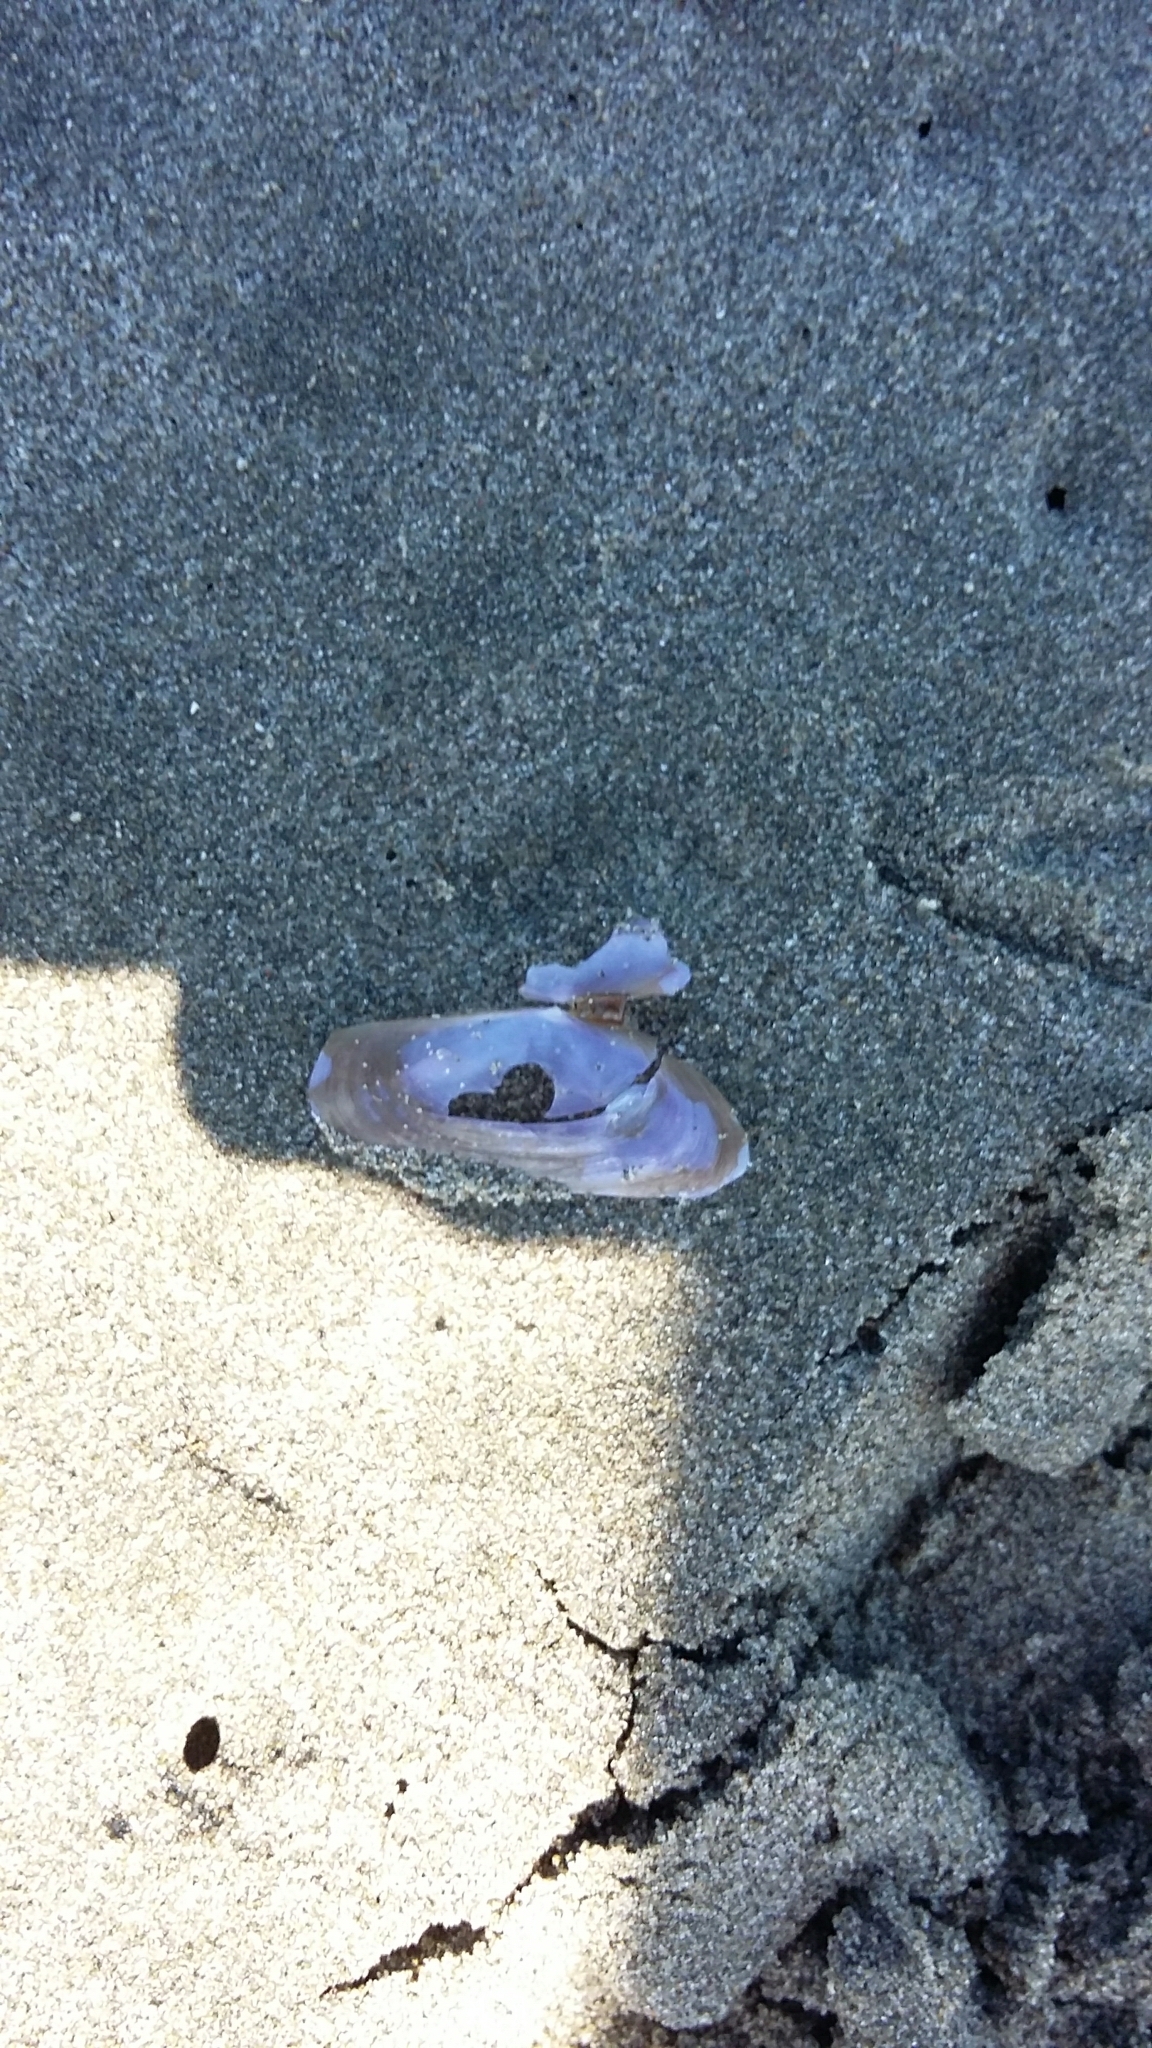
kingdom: Animalia
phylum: Mollusca
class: Bivalvia
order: Cardiida
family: Psammobiidae
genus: Hiatula
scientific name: Hiatula nitida
